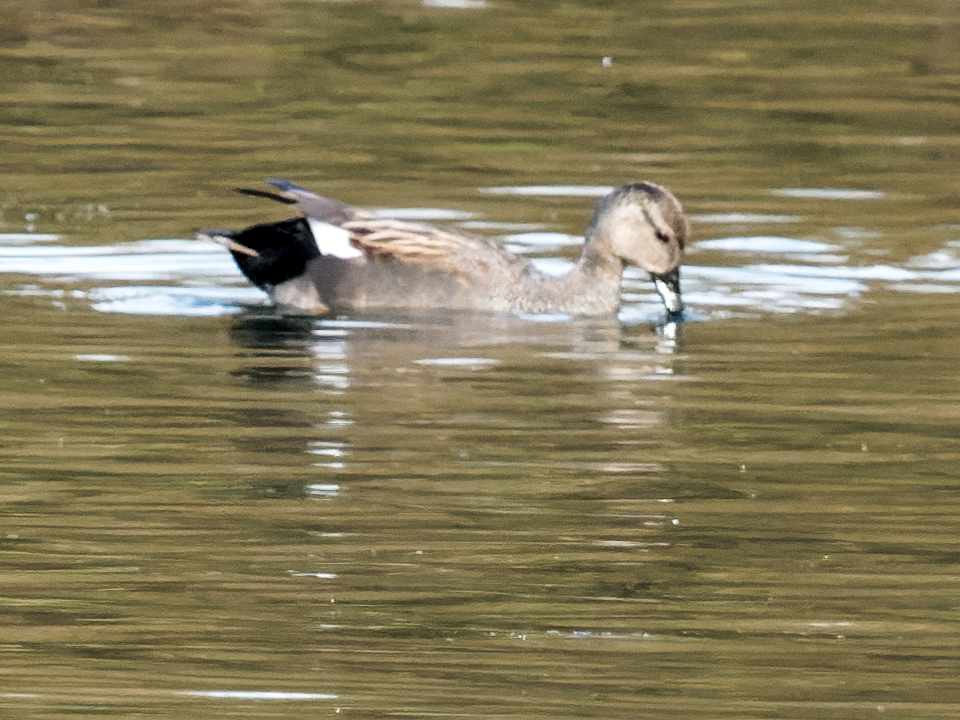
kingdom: Animalia
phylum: Chordata
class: Aves
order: Anseriformes
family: Anatidae
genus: Mareca
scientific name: Mareca strepera
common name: Gadwall
